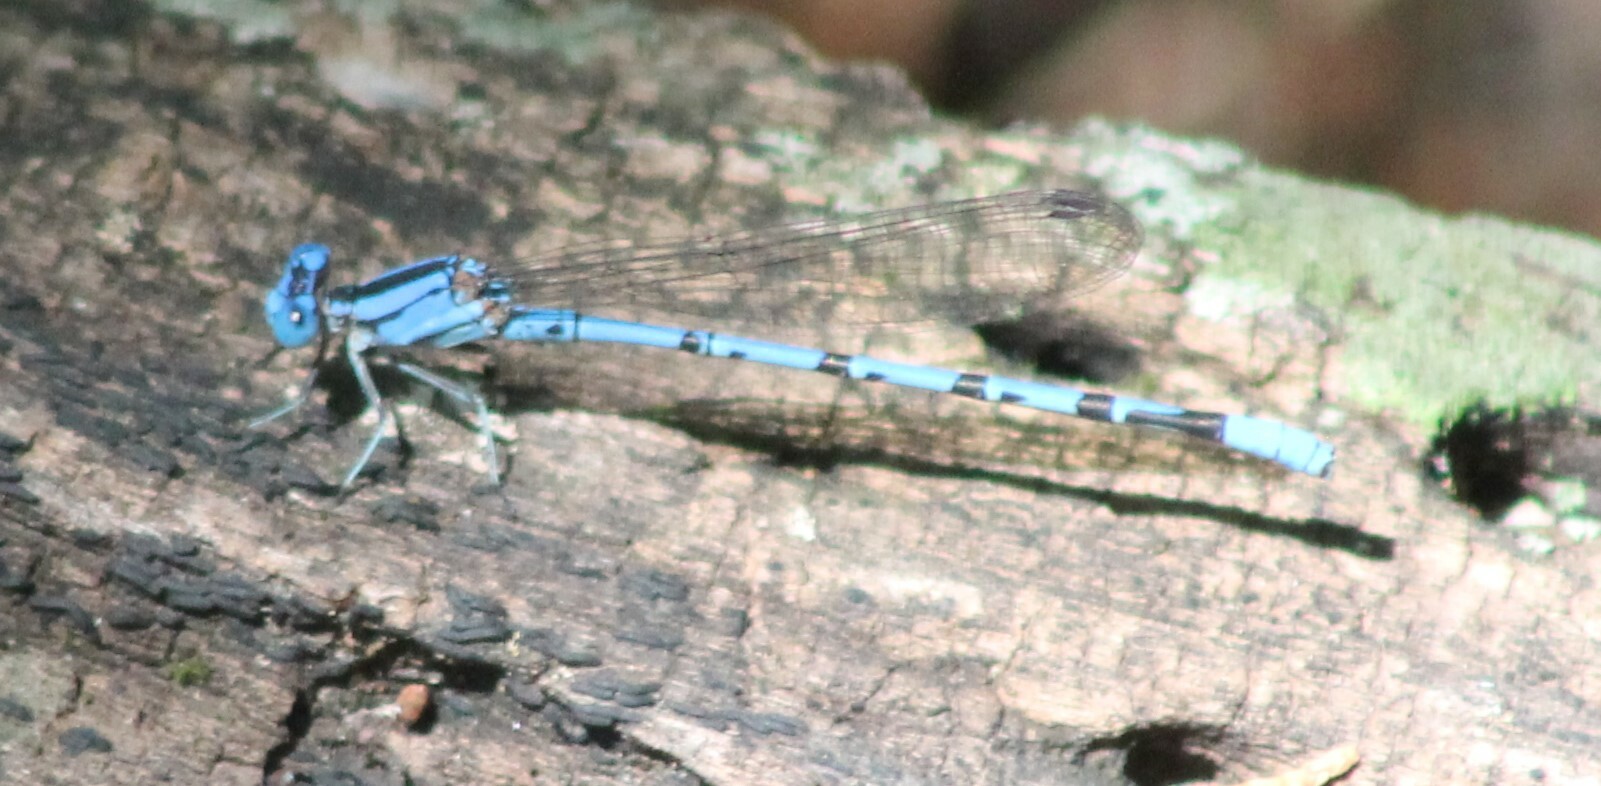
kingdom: Animalia
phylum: Arthropoda
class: Insecta
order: Odonata
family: Coenagrionidae
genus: Argia
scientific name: Argia funebris
